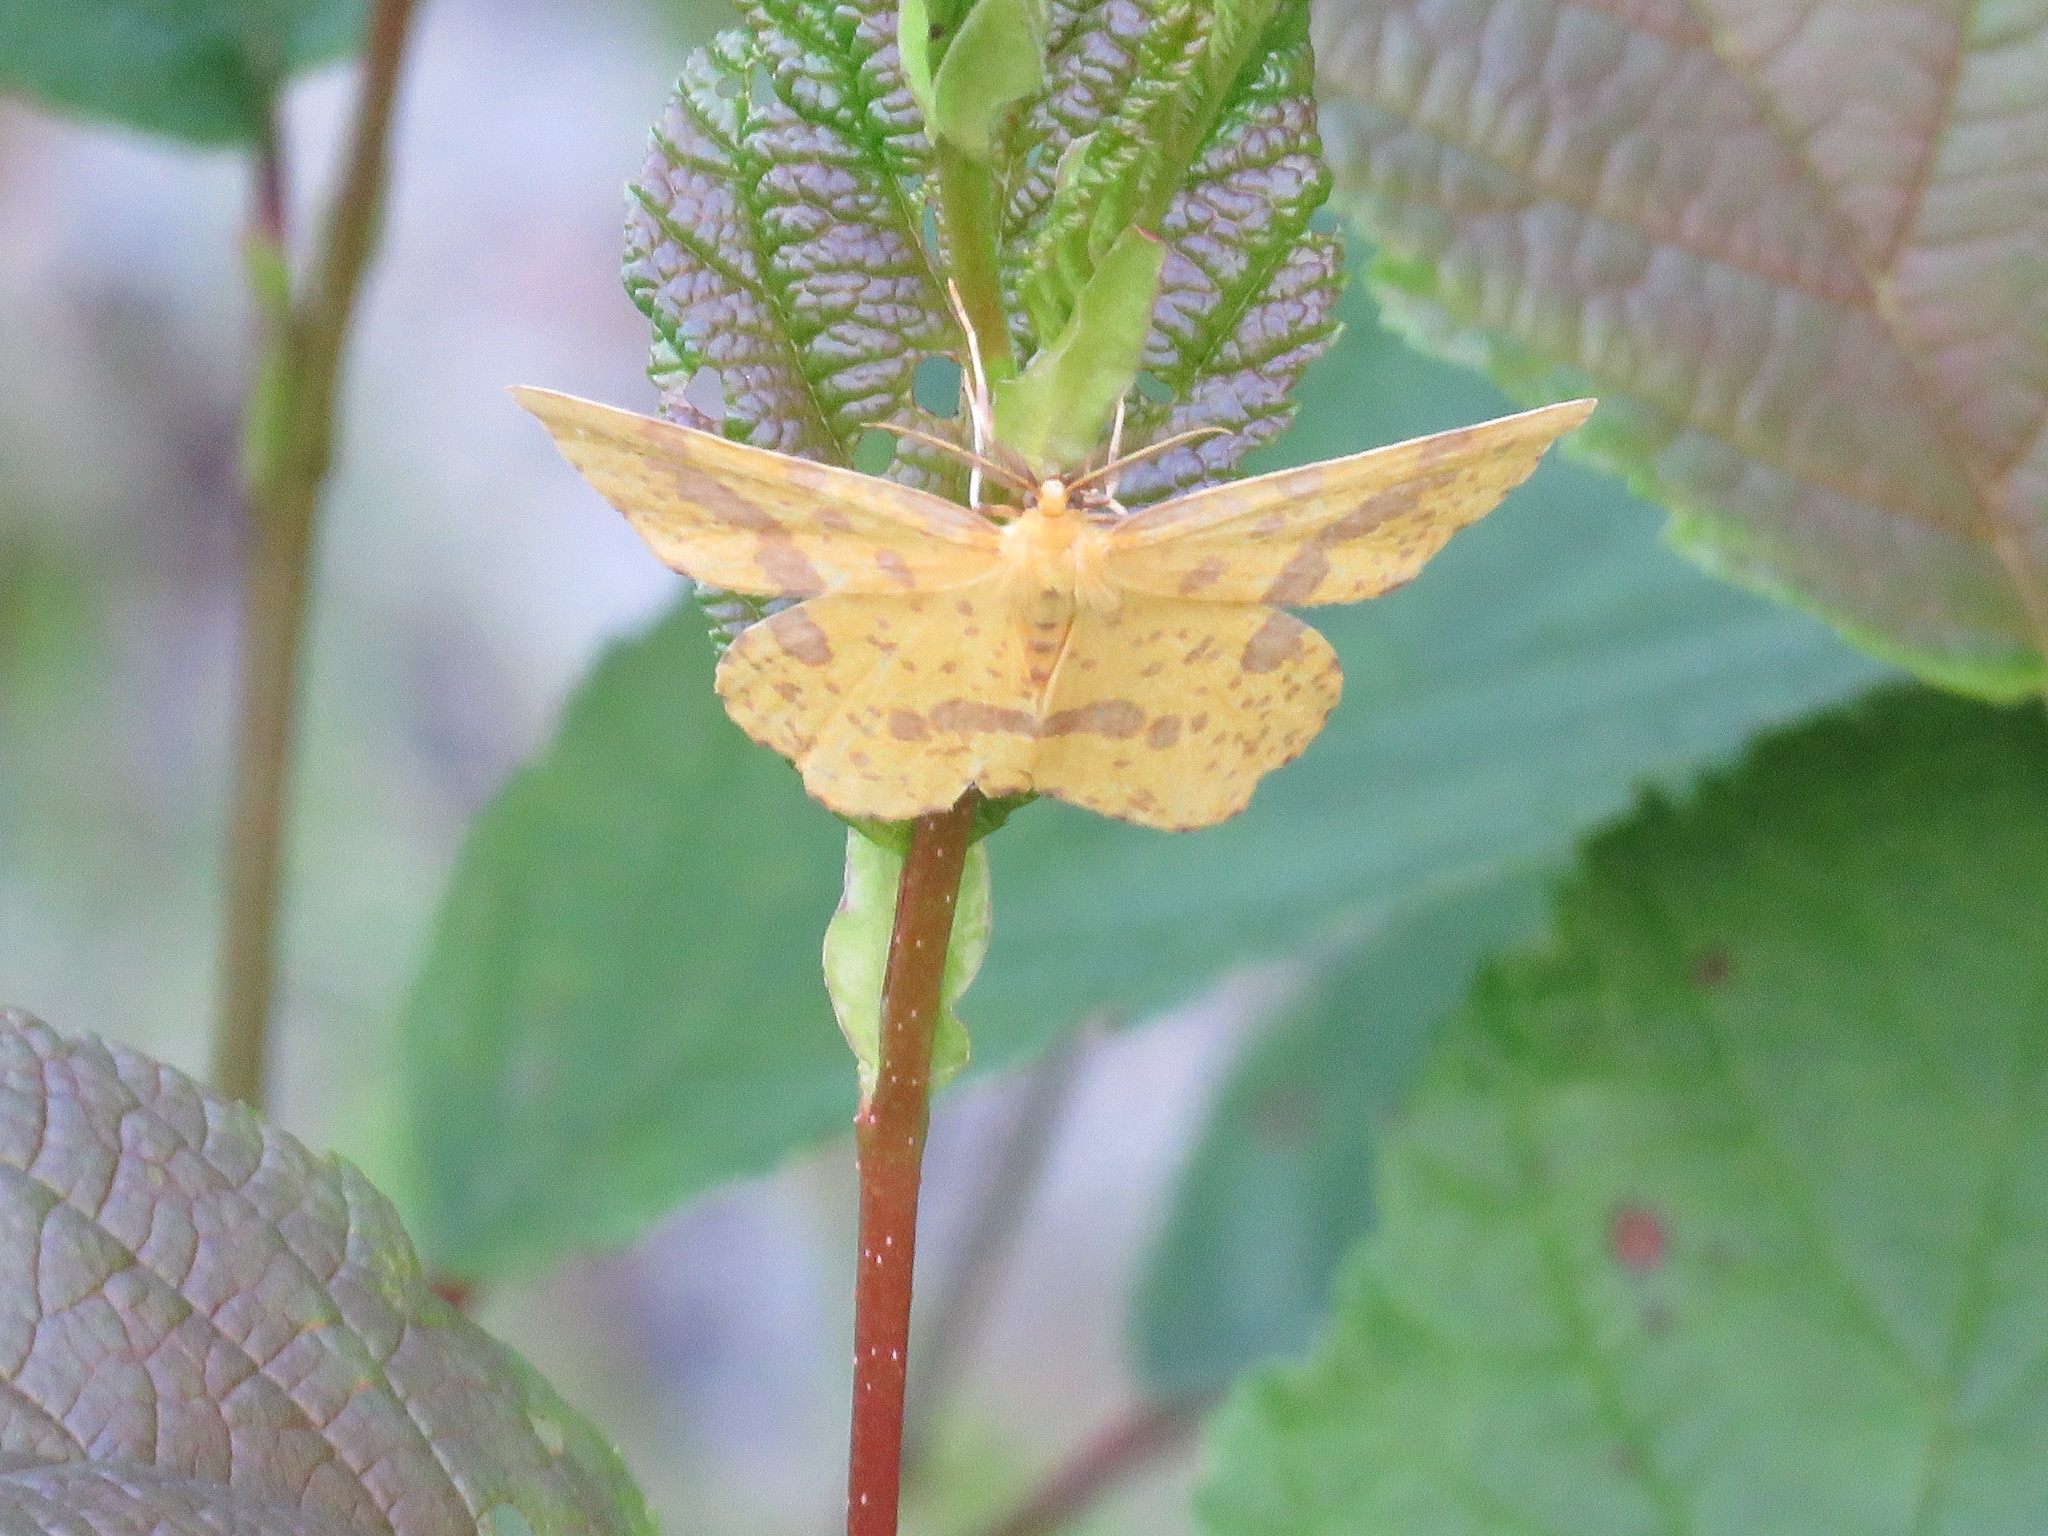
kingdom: Animalia
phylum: Arthropoda
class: Insecta
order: Lepidoptera
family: Geometridae
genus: Xanthotype
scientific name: Xanthotype
